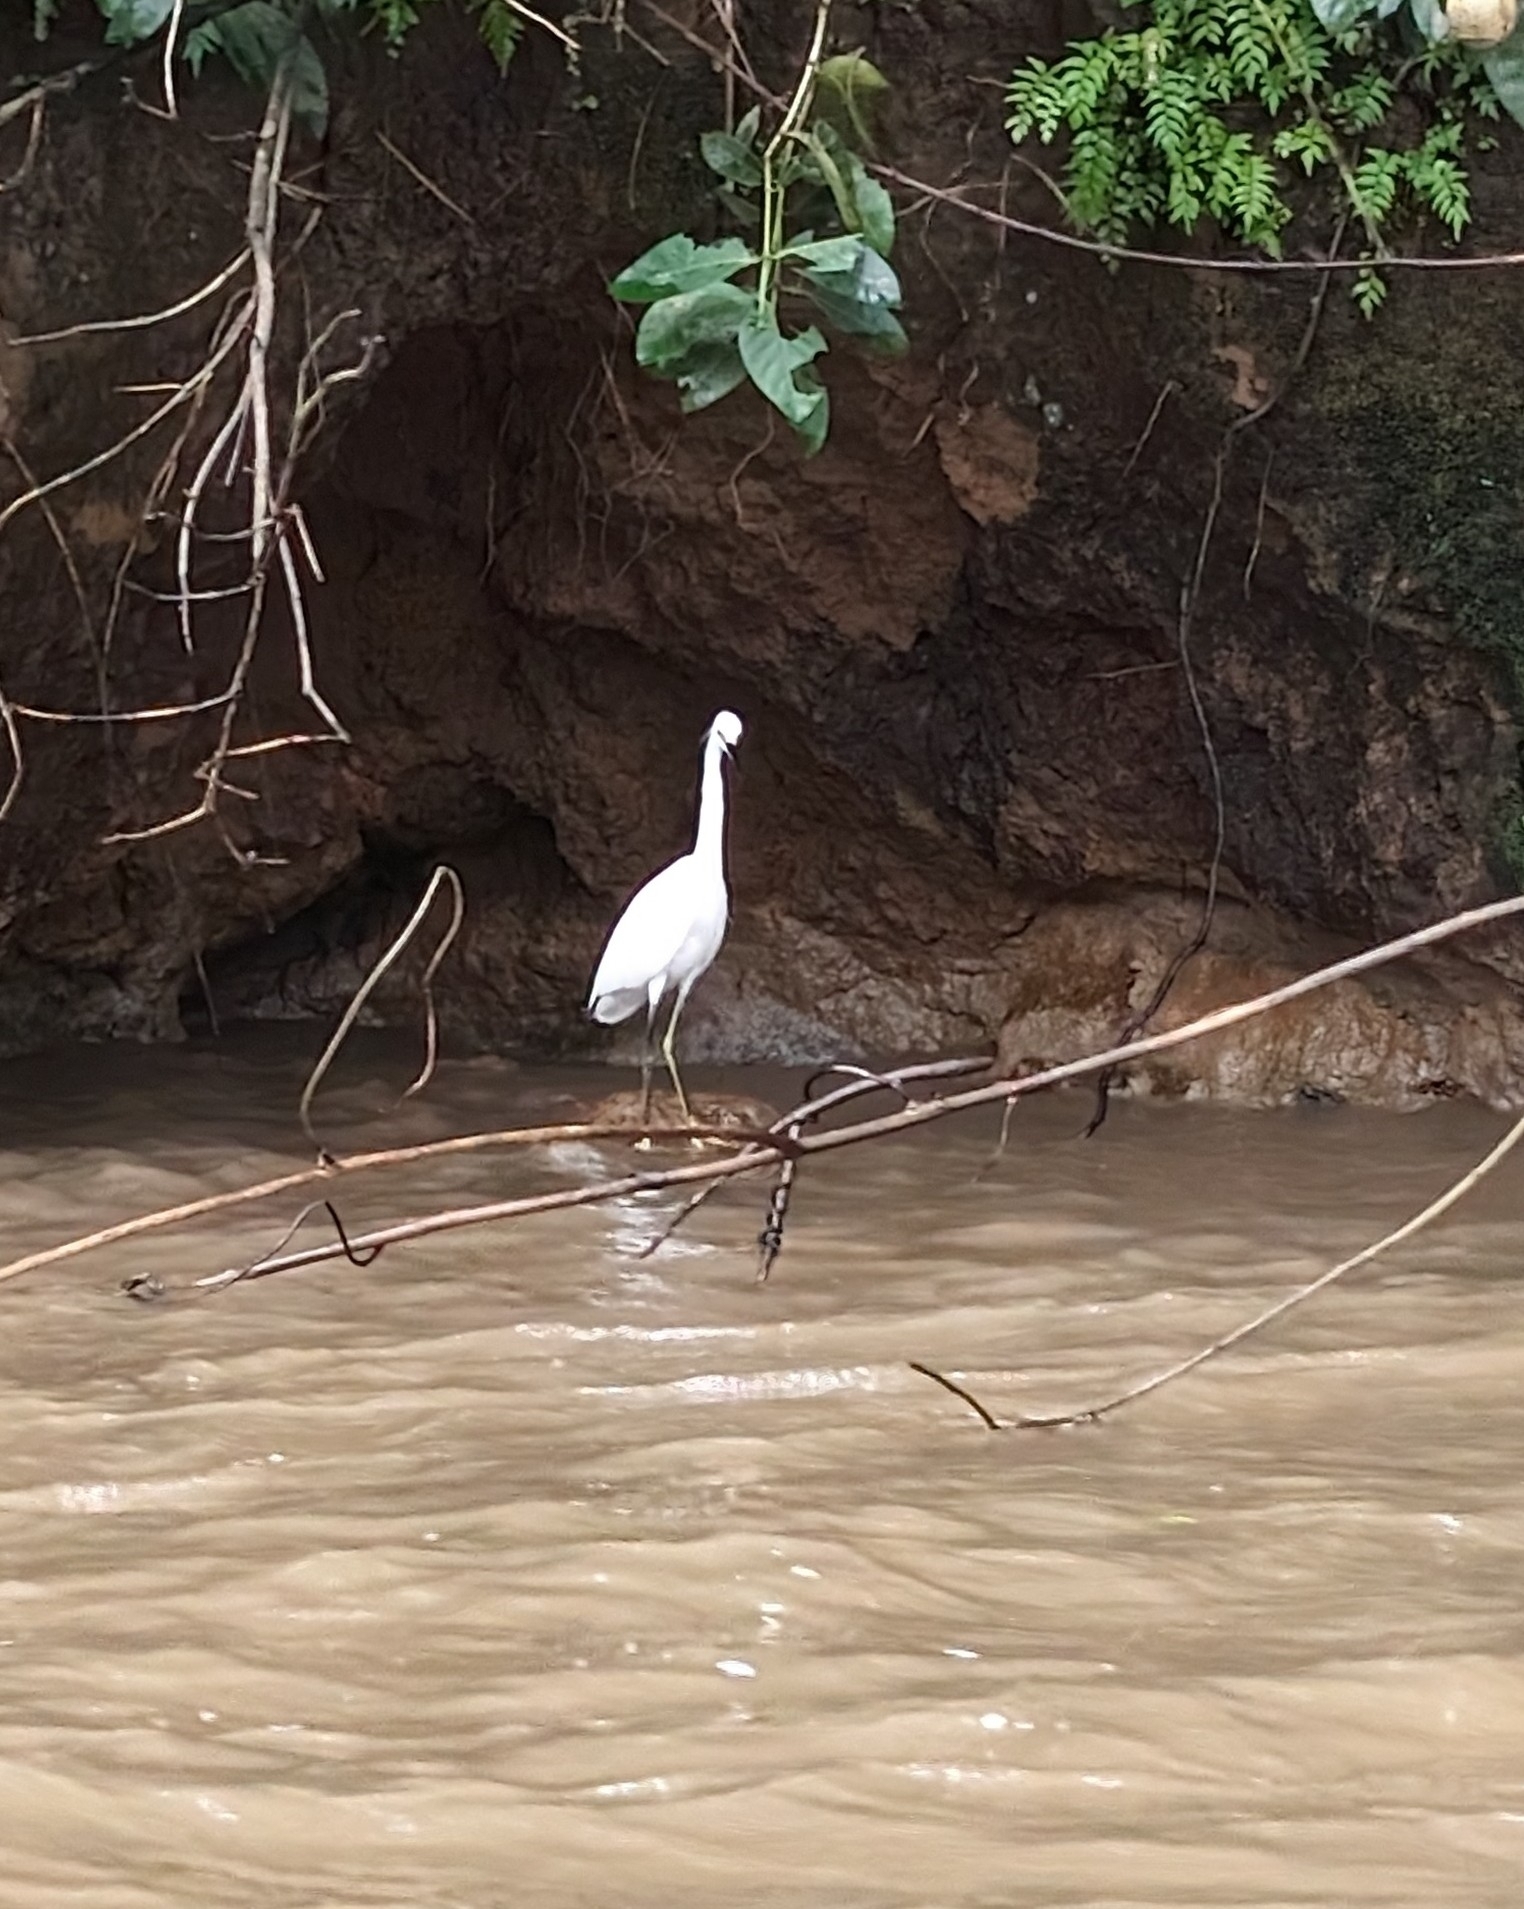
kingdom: Animalia
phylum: Chordata
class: Aves
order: Pelecaniformes
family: Ardeidae
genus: Egretta
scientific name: Egretta thula
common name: Snowy egret
